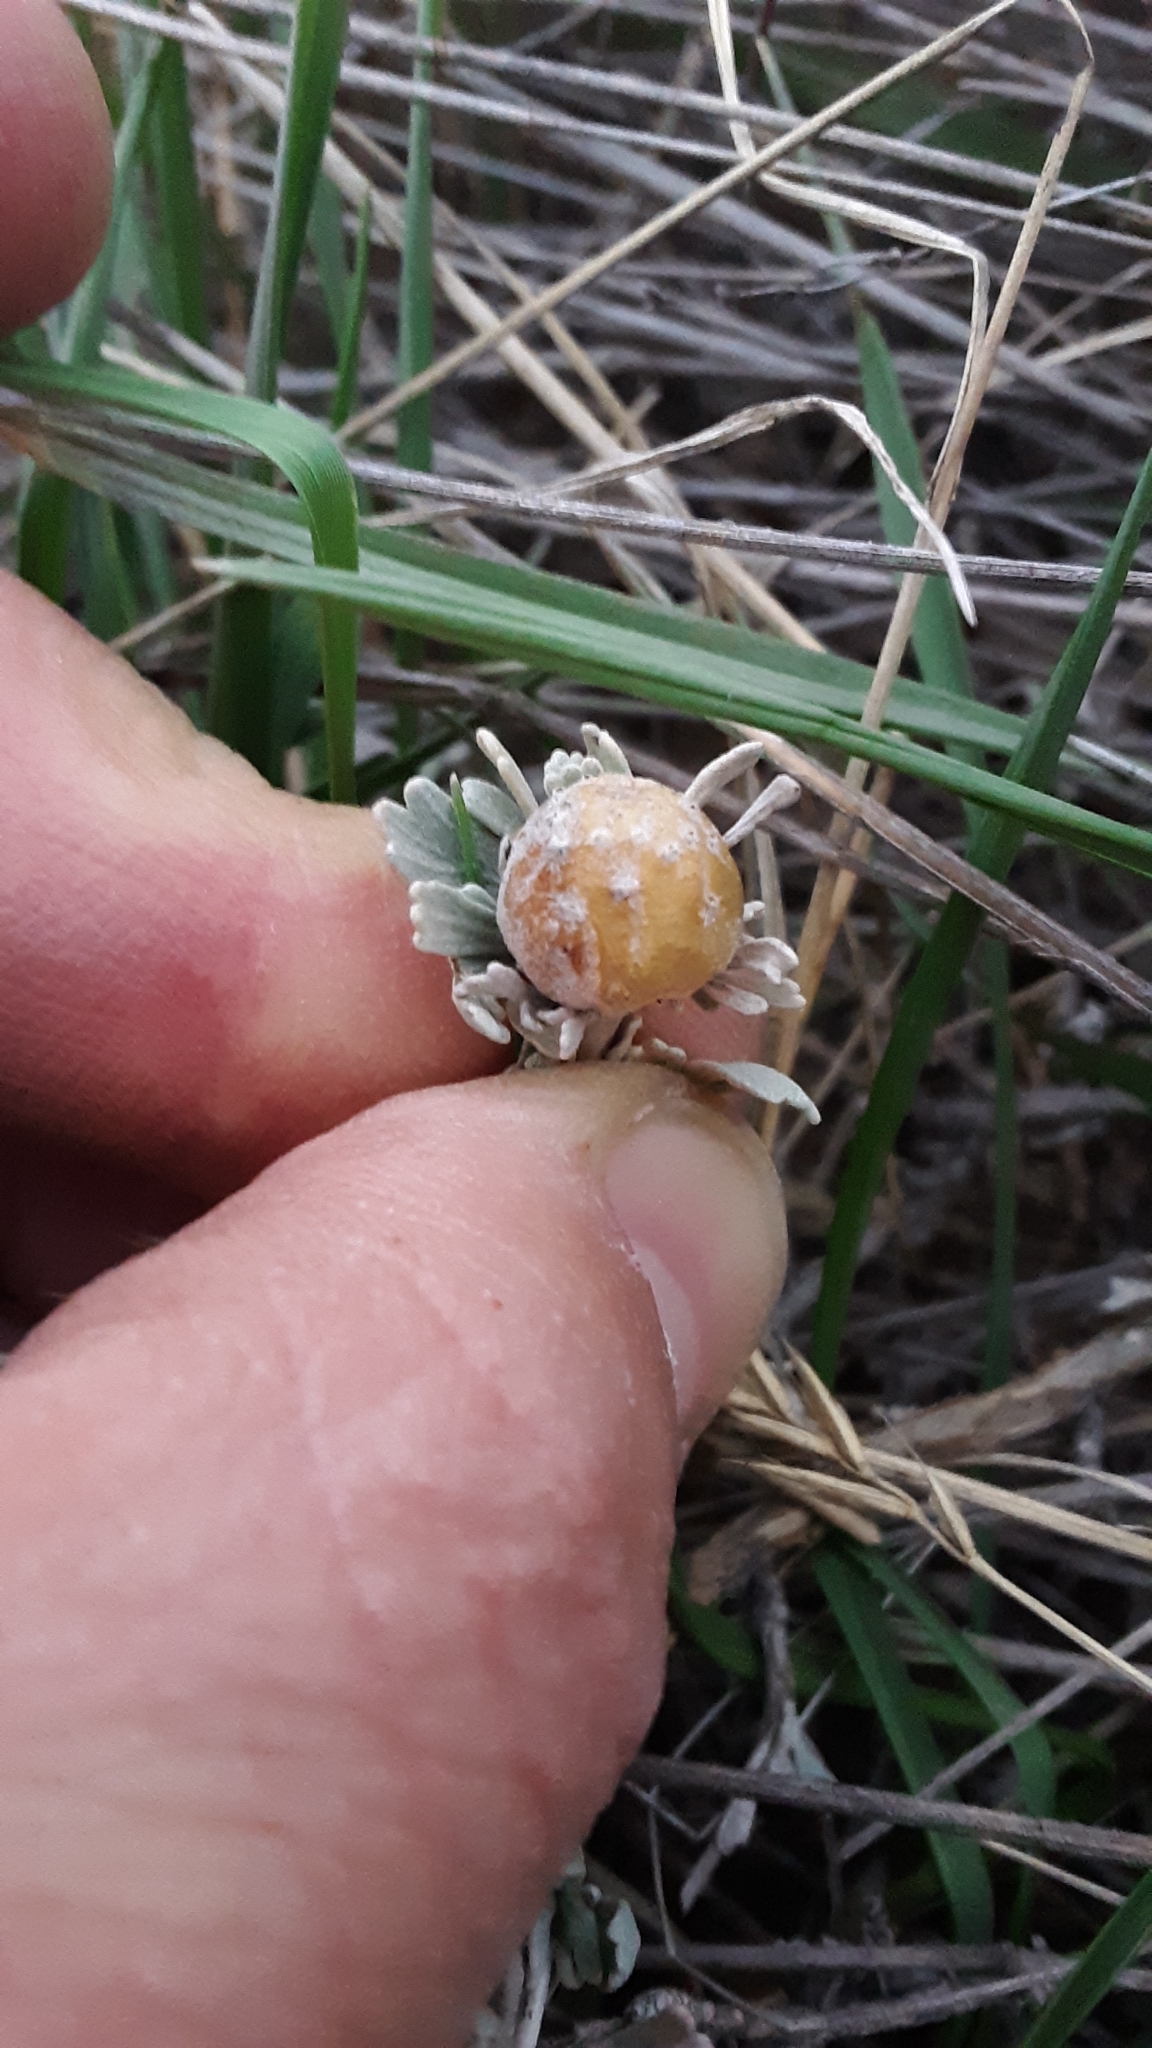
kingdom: Animalia
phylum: Arthropoda
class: Insecta
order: Diptera
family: Cecidomyiidae
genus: Rhopalomyia
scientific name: Rhopalomyia obovata
